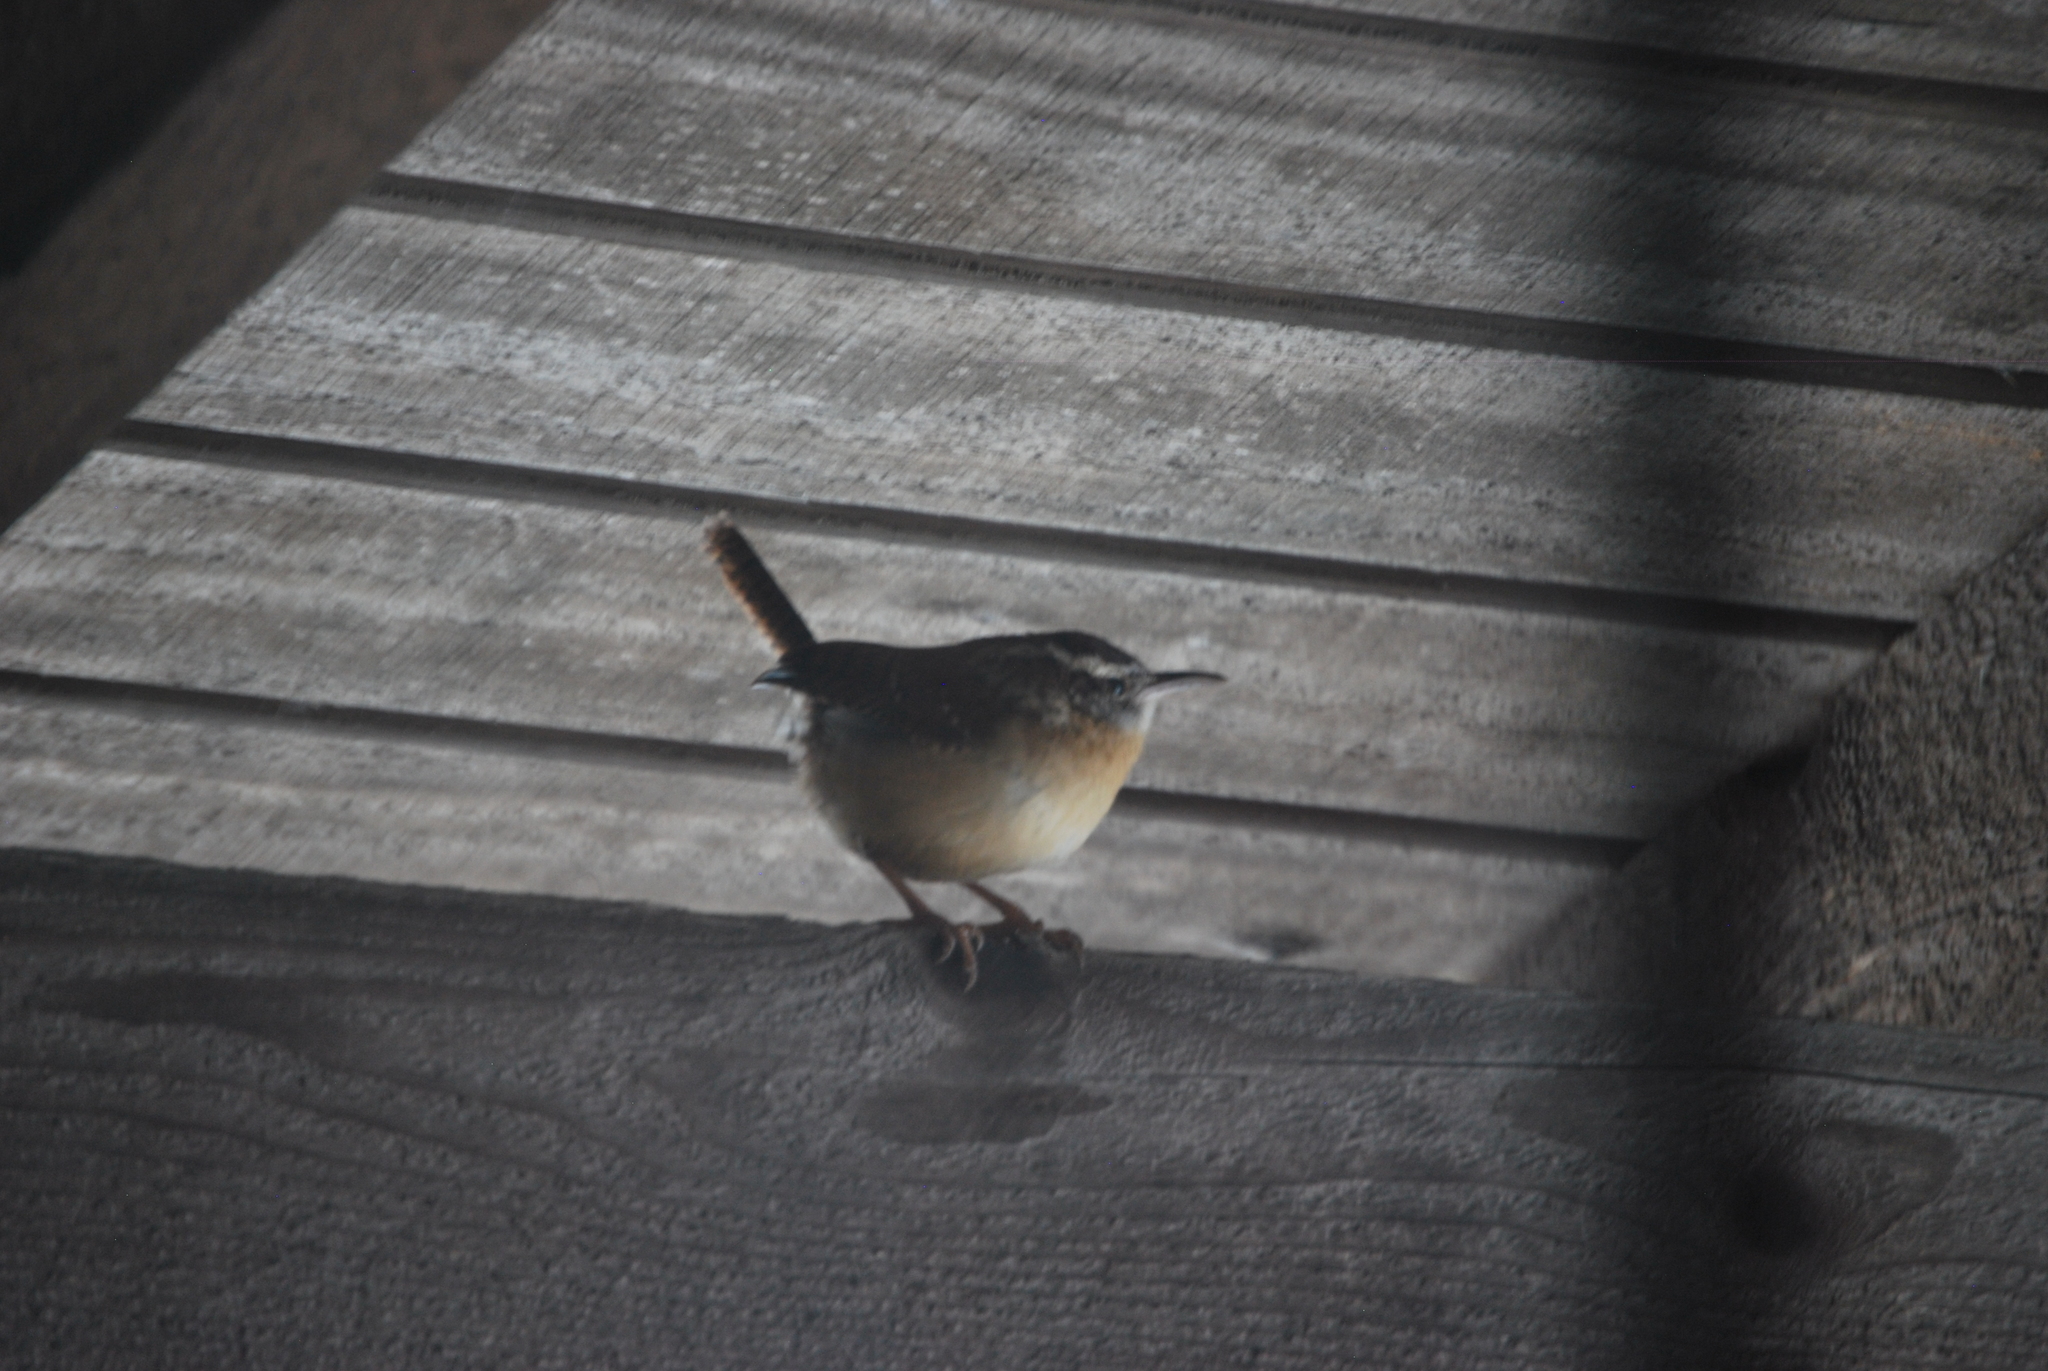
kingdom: Animalia
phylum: Chordata
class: Aves
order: Passeriformes
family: Troglodytidae
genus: Thryothorus
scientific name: Thryothorus ludovicianus
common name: Carolina wren
